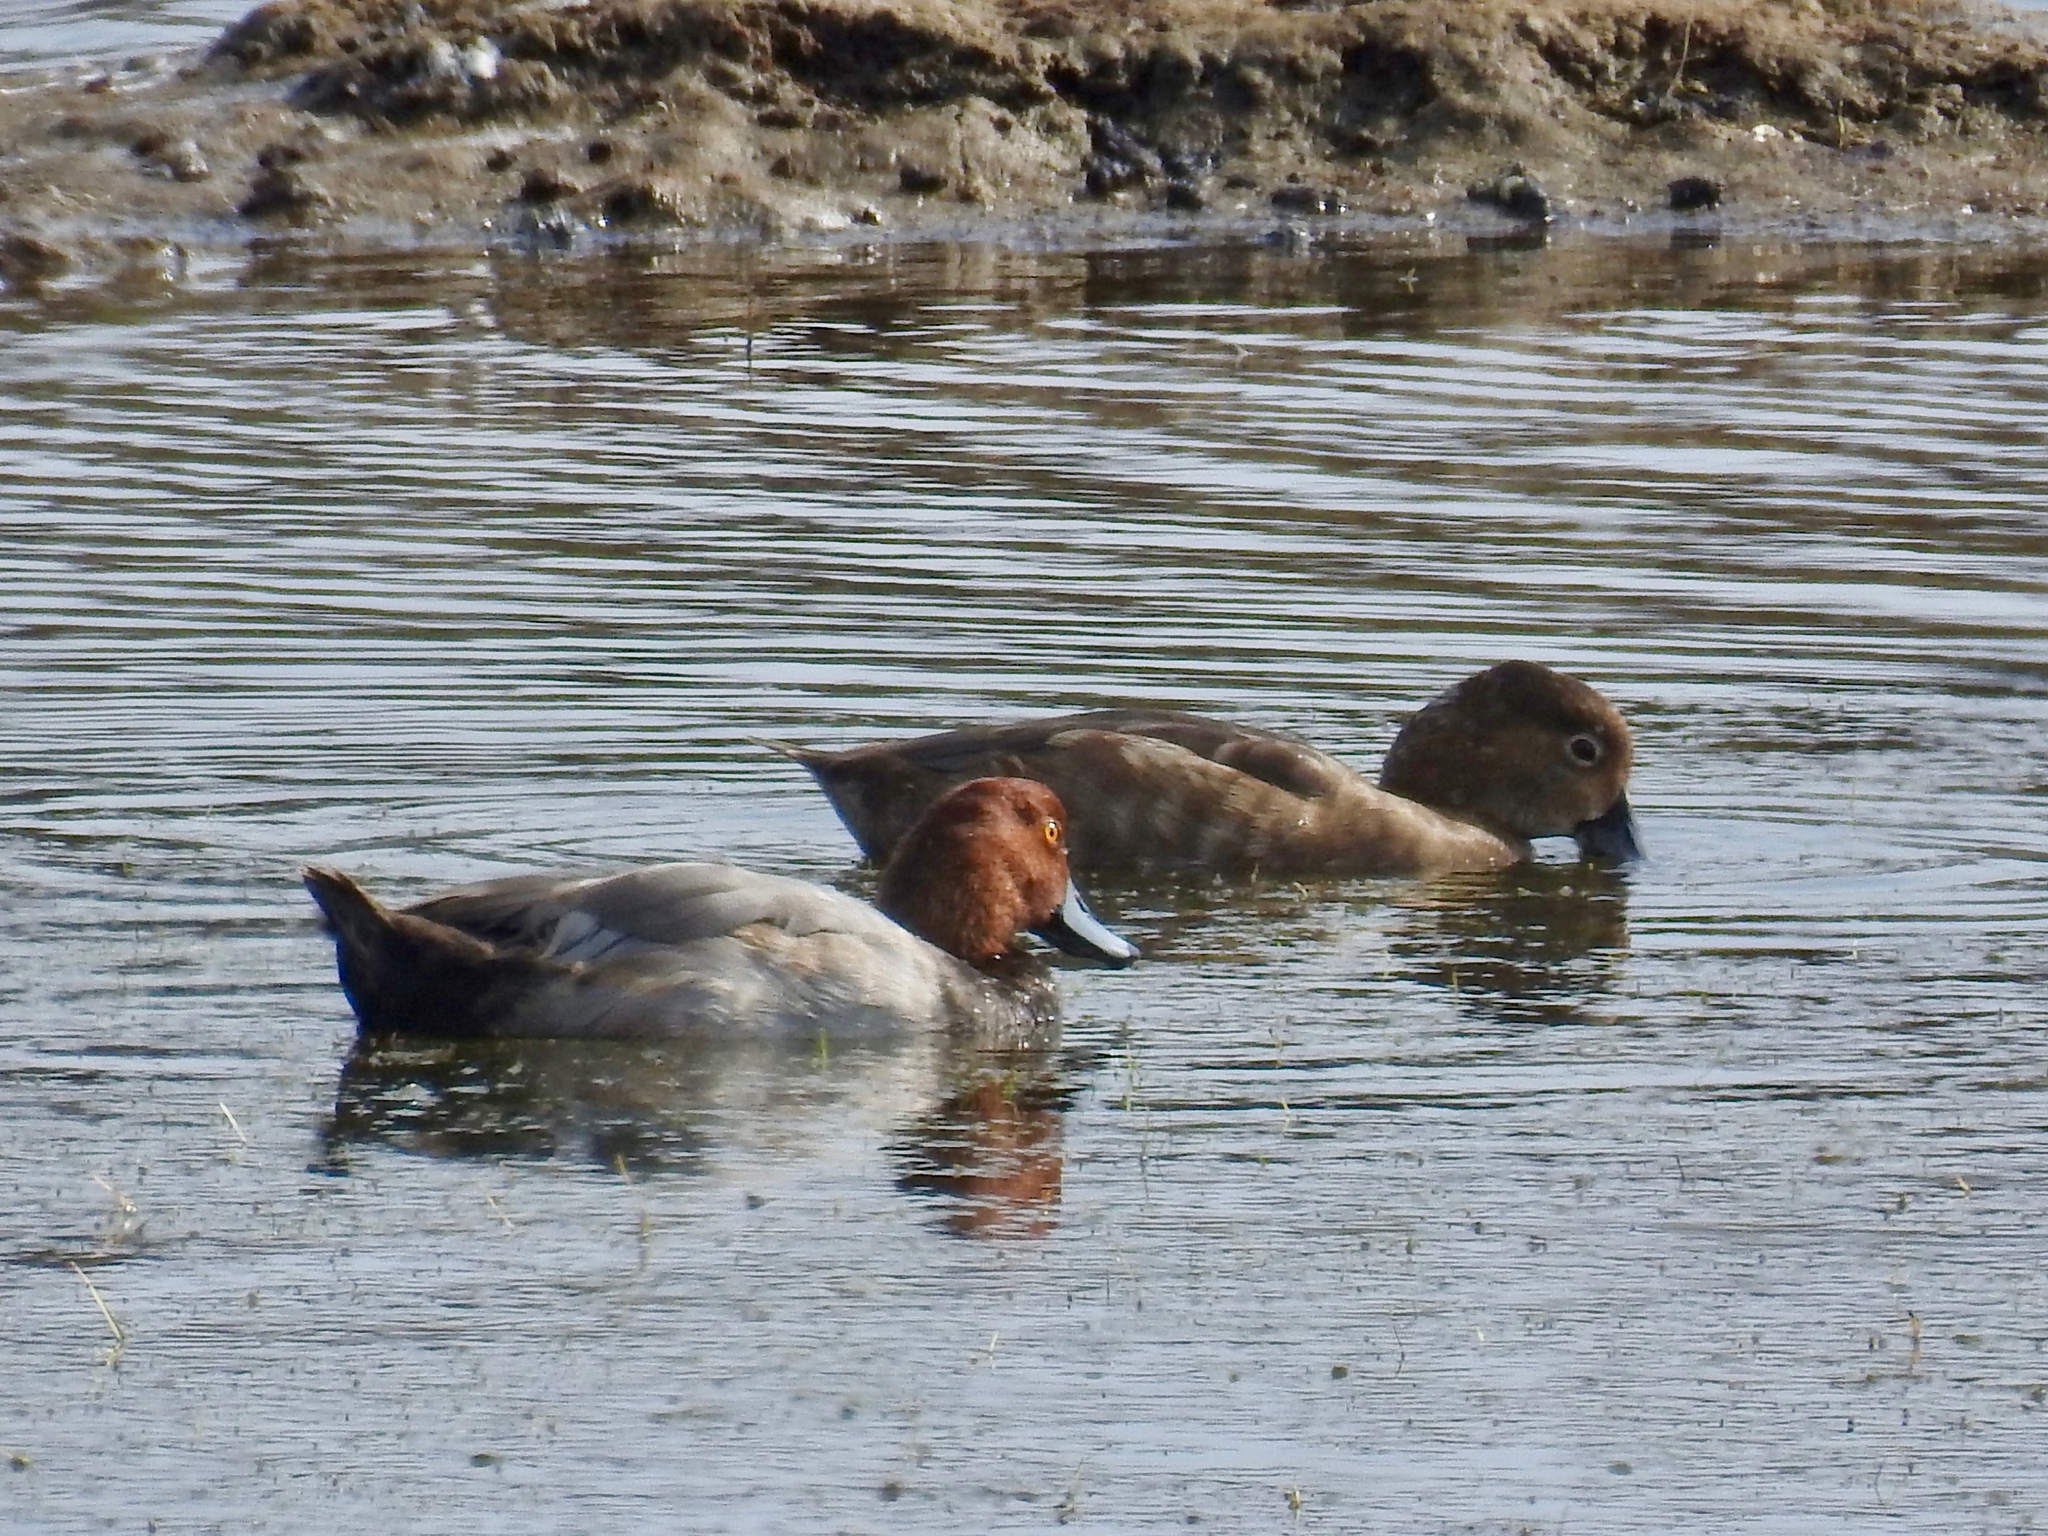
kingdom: Animalia
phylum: Chordata
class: Aves
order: Anseriformes
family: Anatidae
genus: Aythya
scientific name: Aythya americana
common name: Redhead
